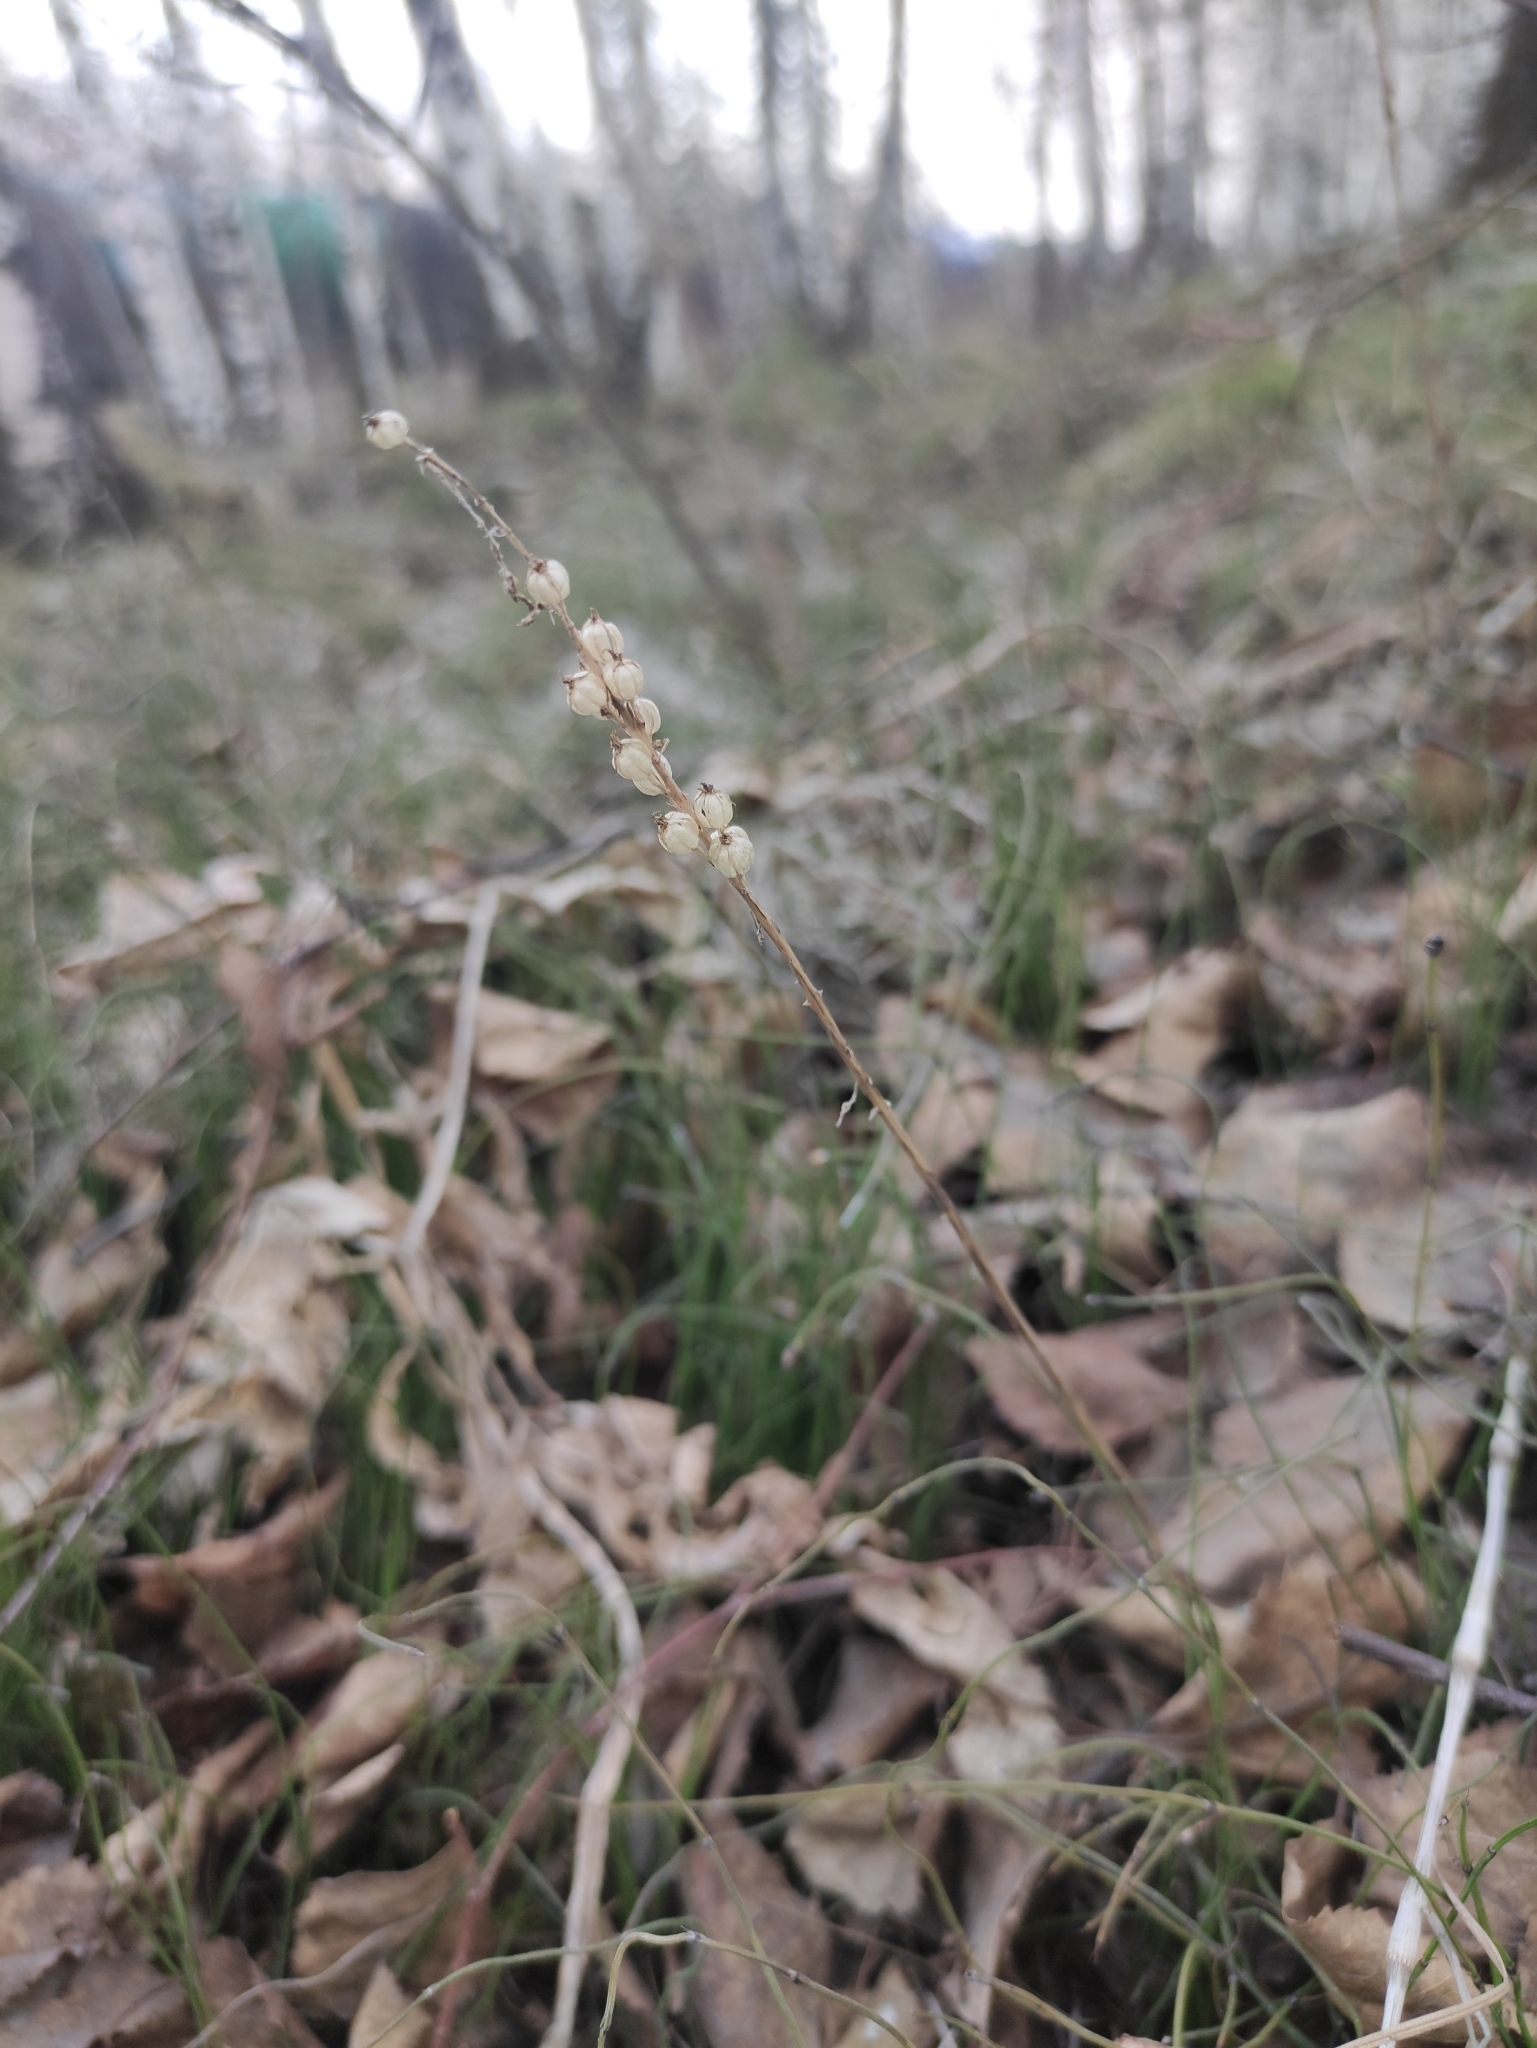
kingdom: Plantae
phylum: Tracheophyta
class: Liliopsida
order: Asparagales
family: Orchidaceae
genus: Malaxis
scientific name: Malaxis monophyllos
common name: White adder's-mouth
